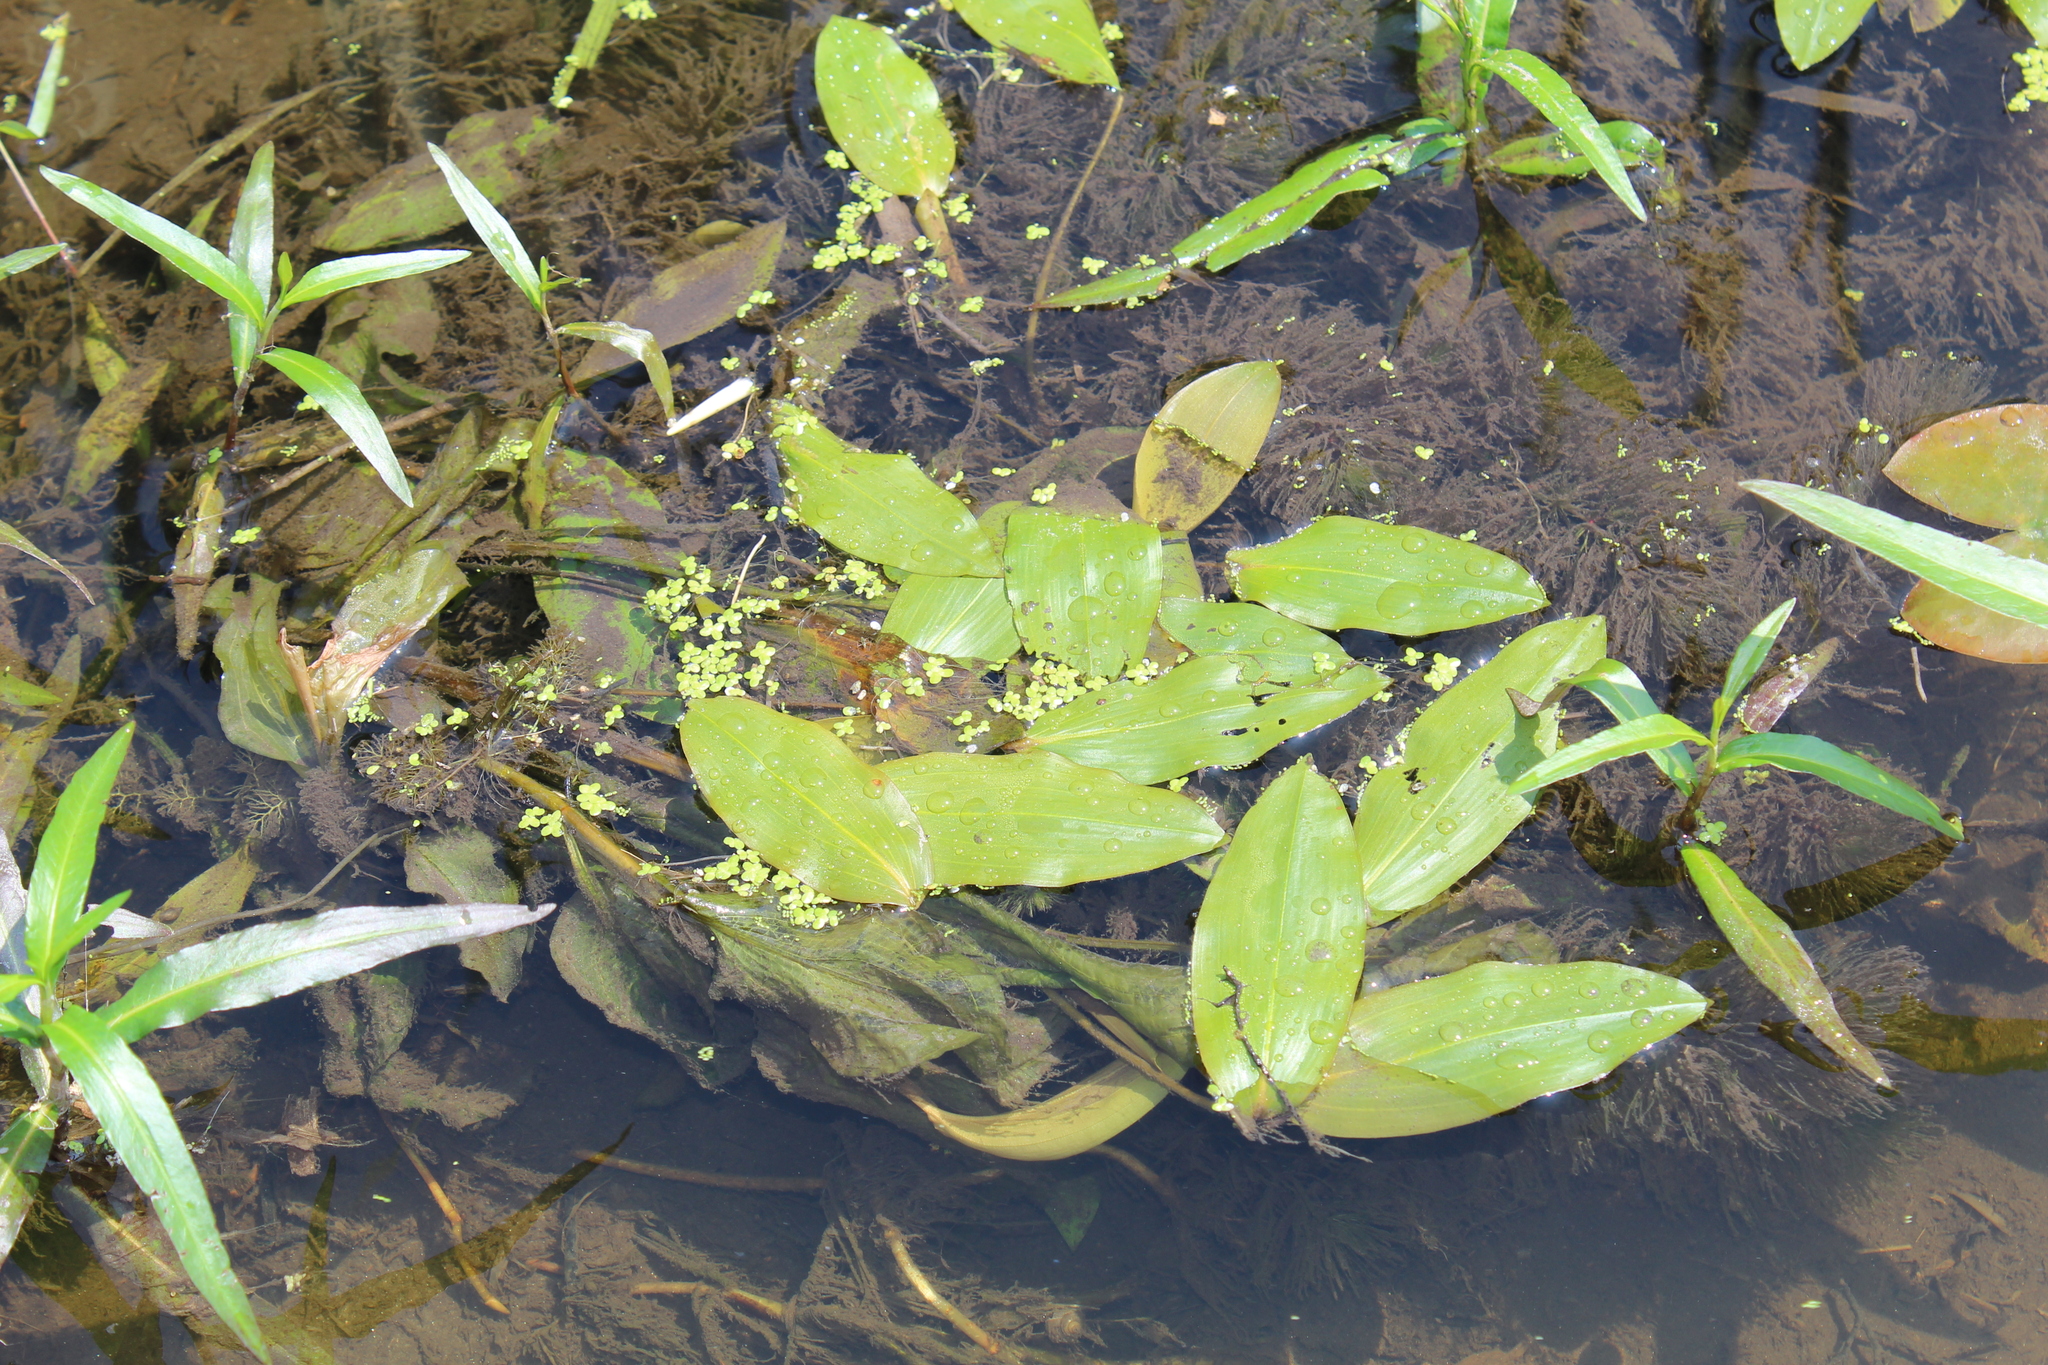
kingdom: Plantae
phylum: Tracheophyta
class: Liliopsida
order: Alismatales
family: Potamogetonaceae
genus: Potamogeton
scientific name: Potamogeton amplifolius
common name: Broad-leaved pondweed
